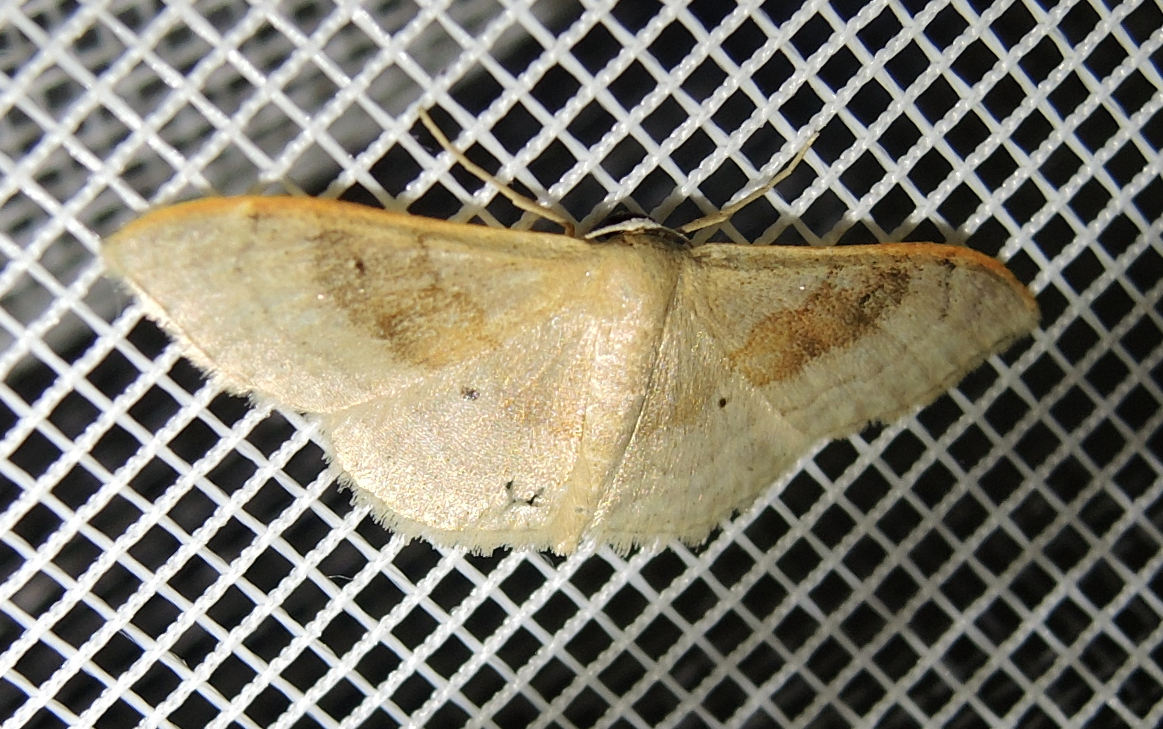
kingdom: Animalia
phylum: Arthropoda
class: Insecta
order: Lepidoptera
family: Geometridae
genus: Idaea
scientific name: Idaea degeneraria
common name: Portland ribbon wave
